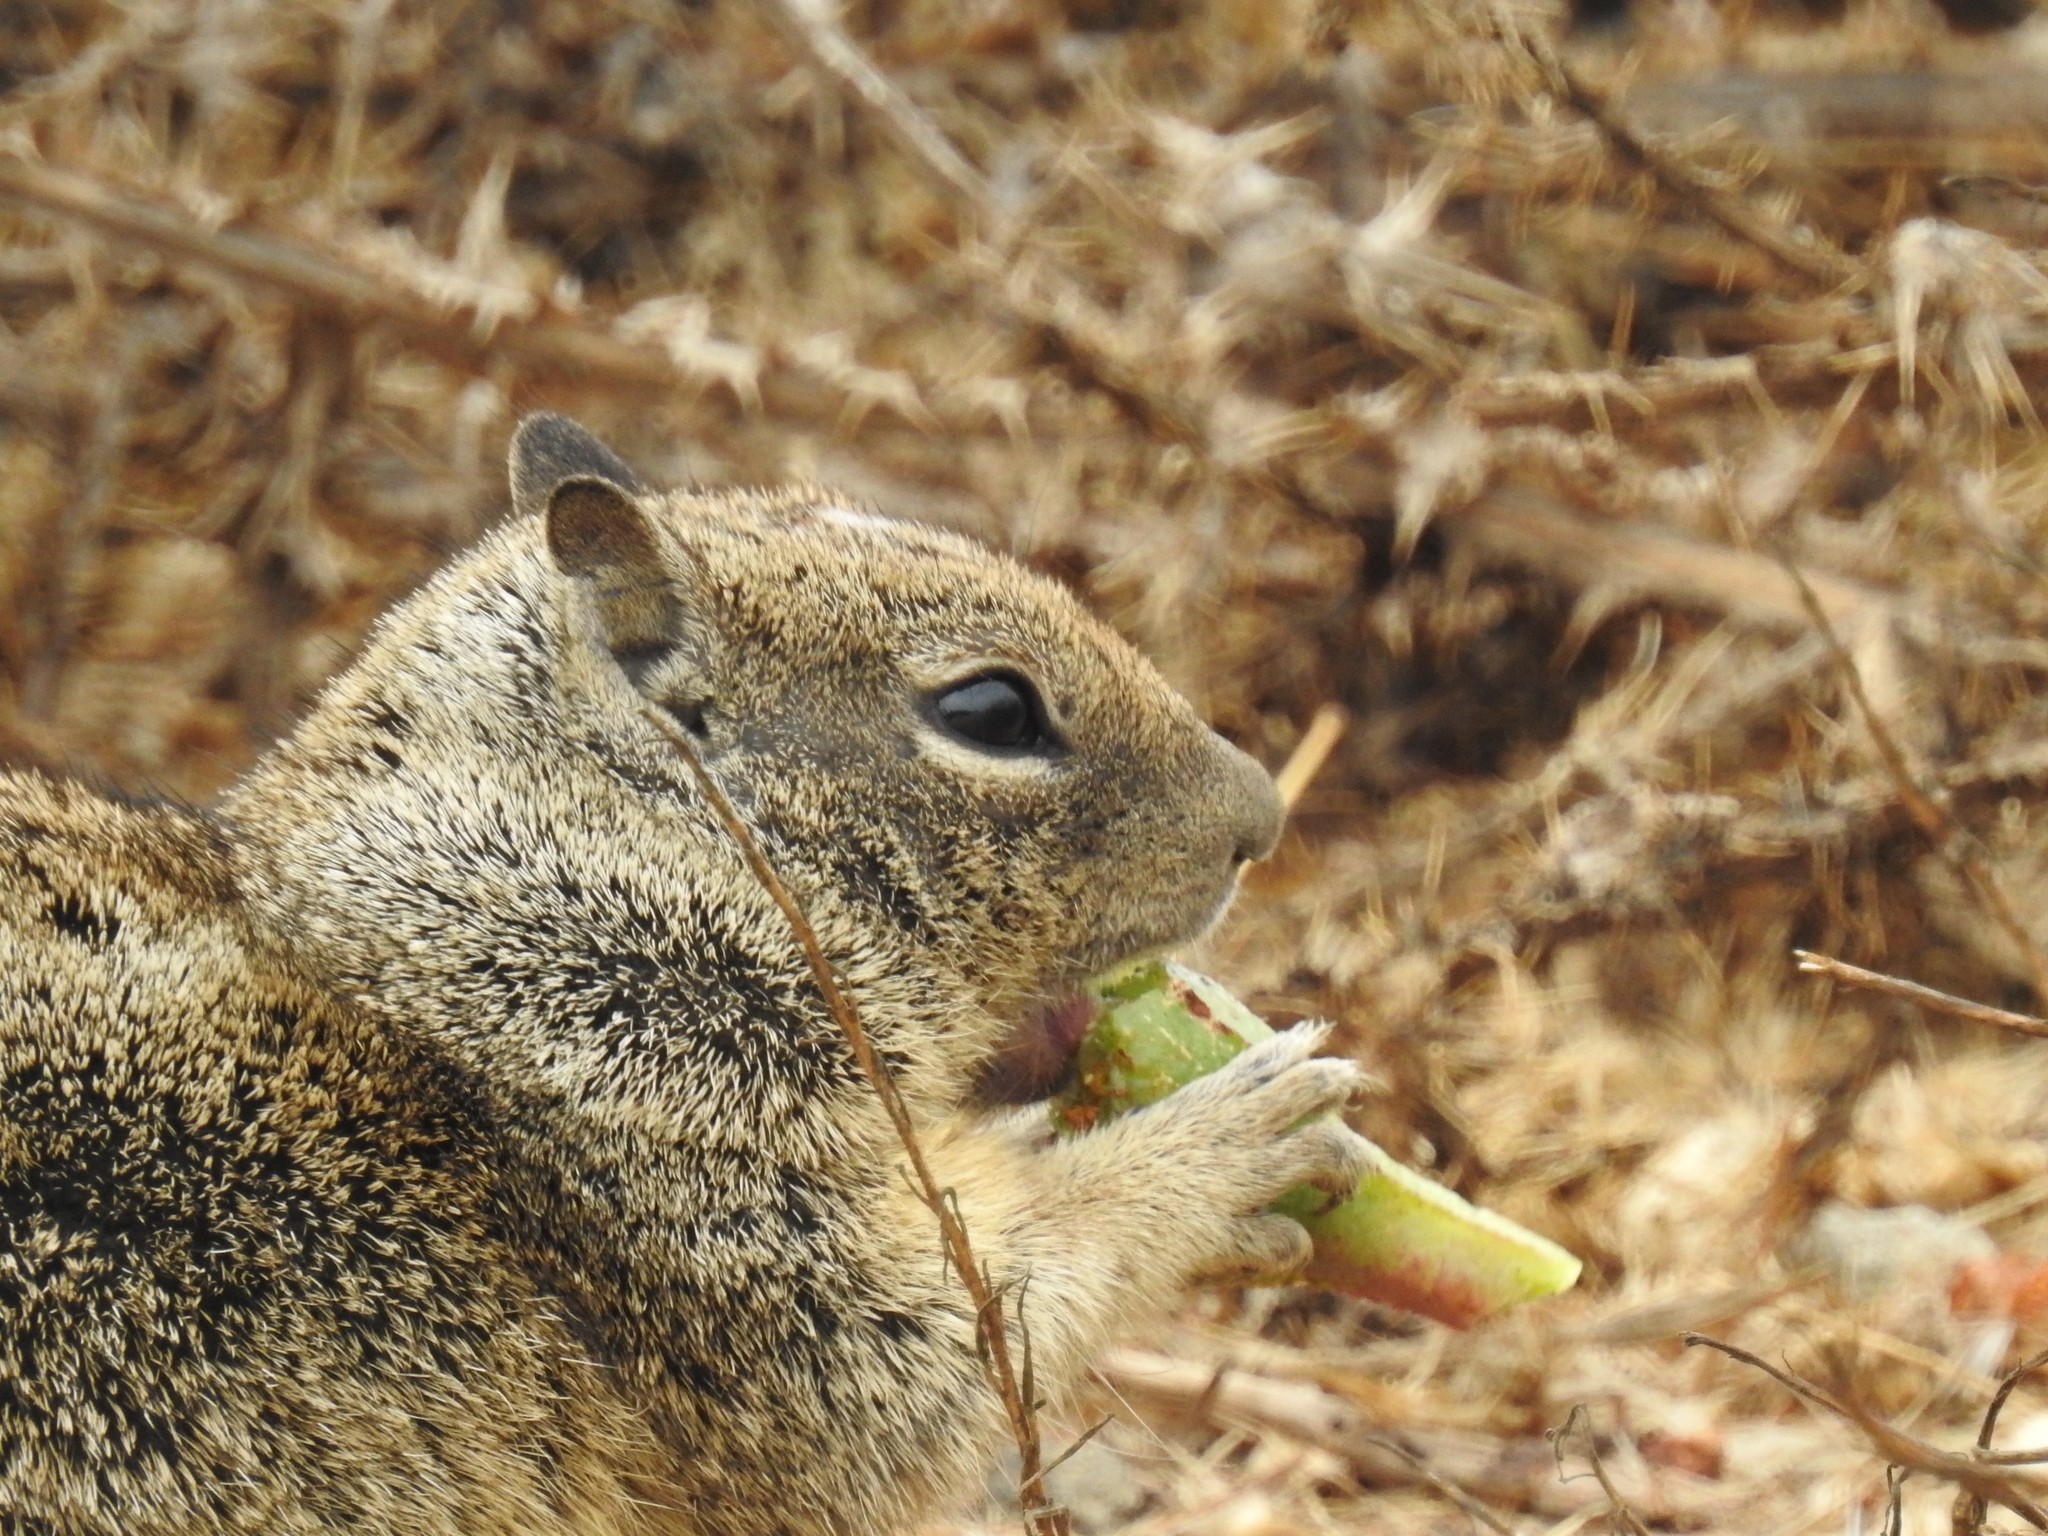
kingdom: Animalia
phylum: Chordata
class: Mammalia
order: Rodentia
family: Sciuridae
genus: Otospermophilus
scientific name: Otospermophilus beecheyi
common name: California ground squirrel
